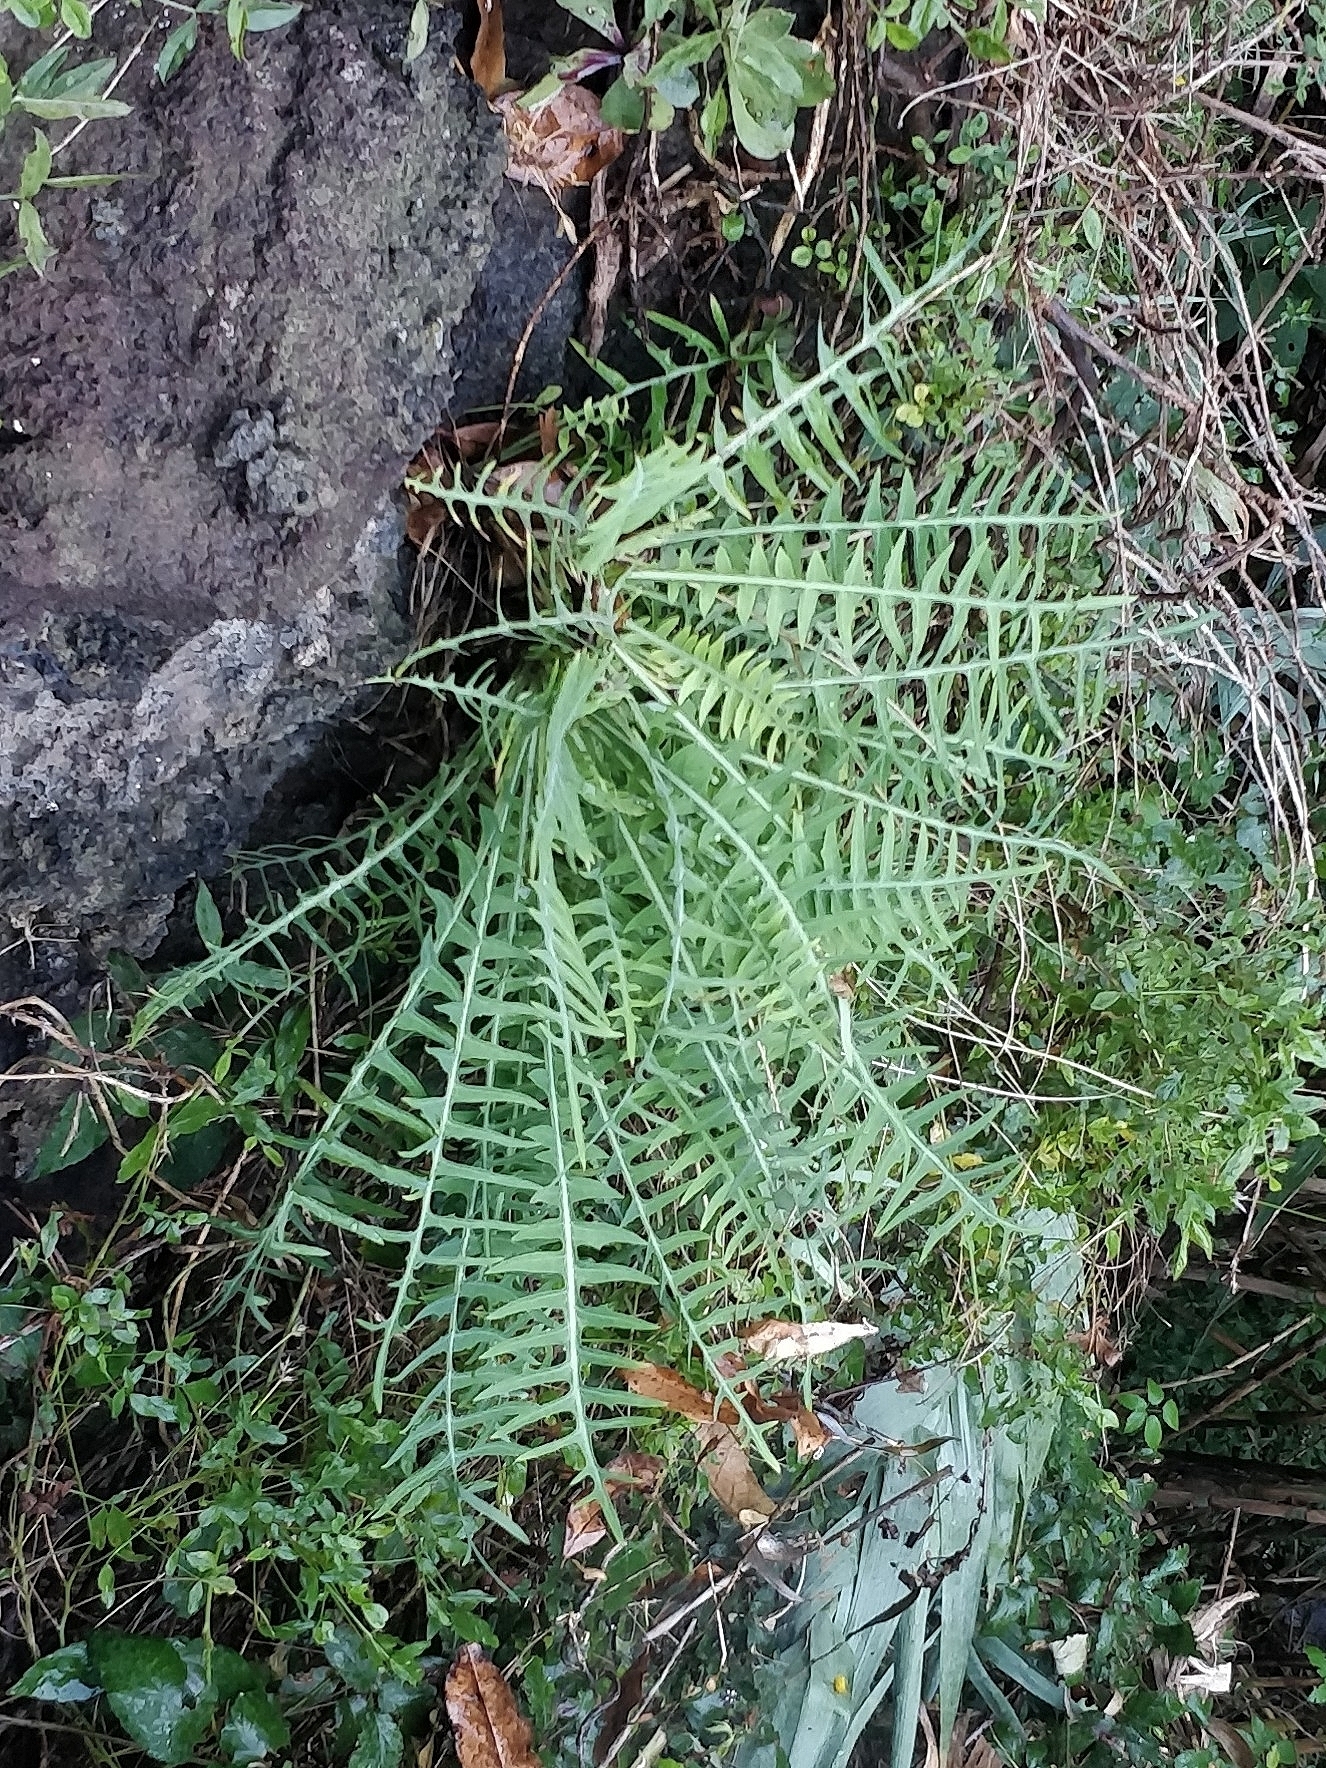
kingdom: Plantae
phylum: Tracheophyta
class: Magnoliopsida
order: Asterales
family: Asteraceae
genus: Sonchus
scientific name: Sonchus ustulatus
